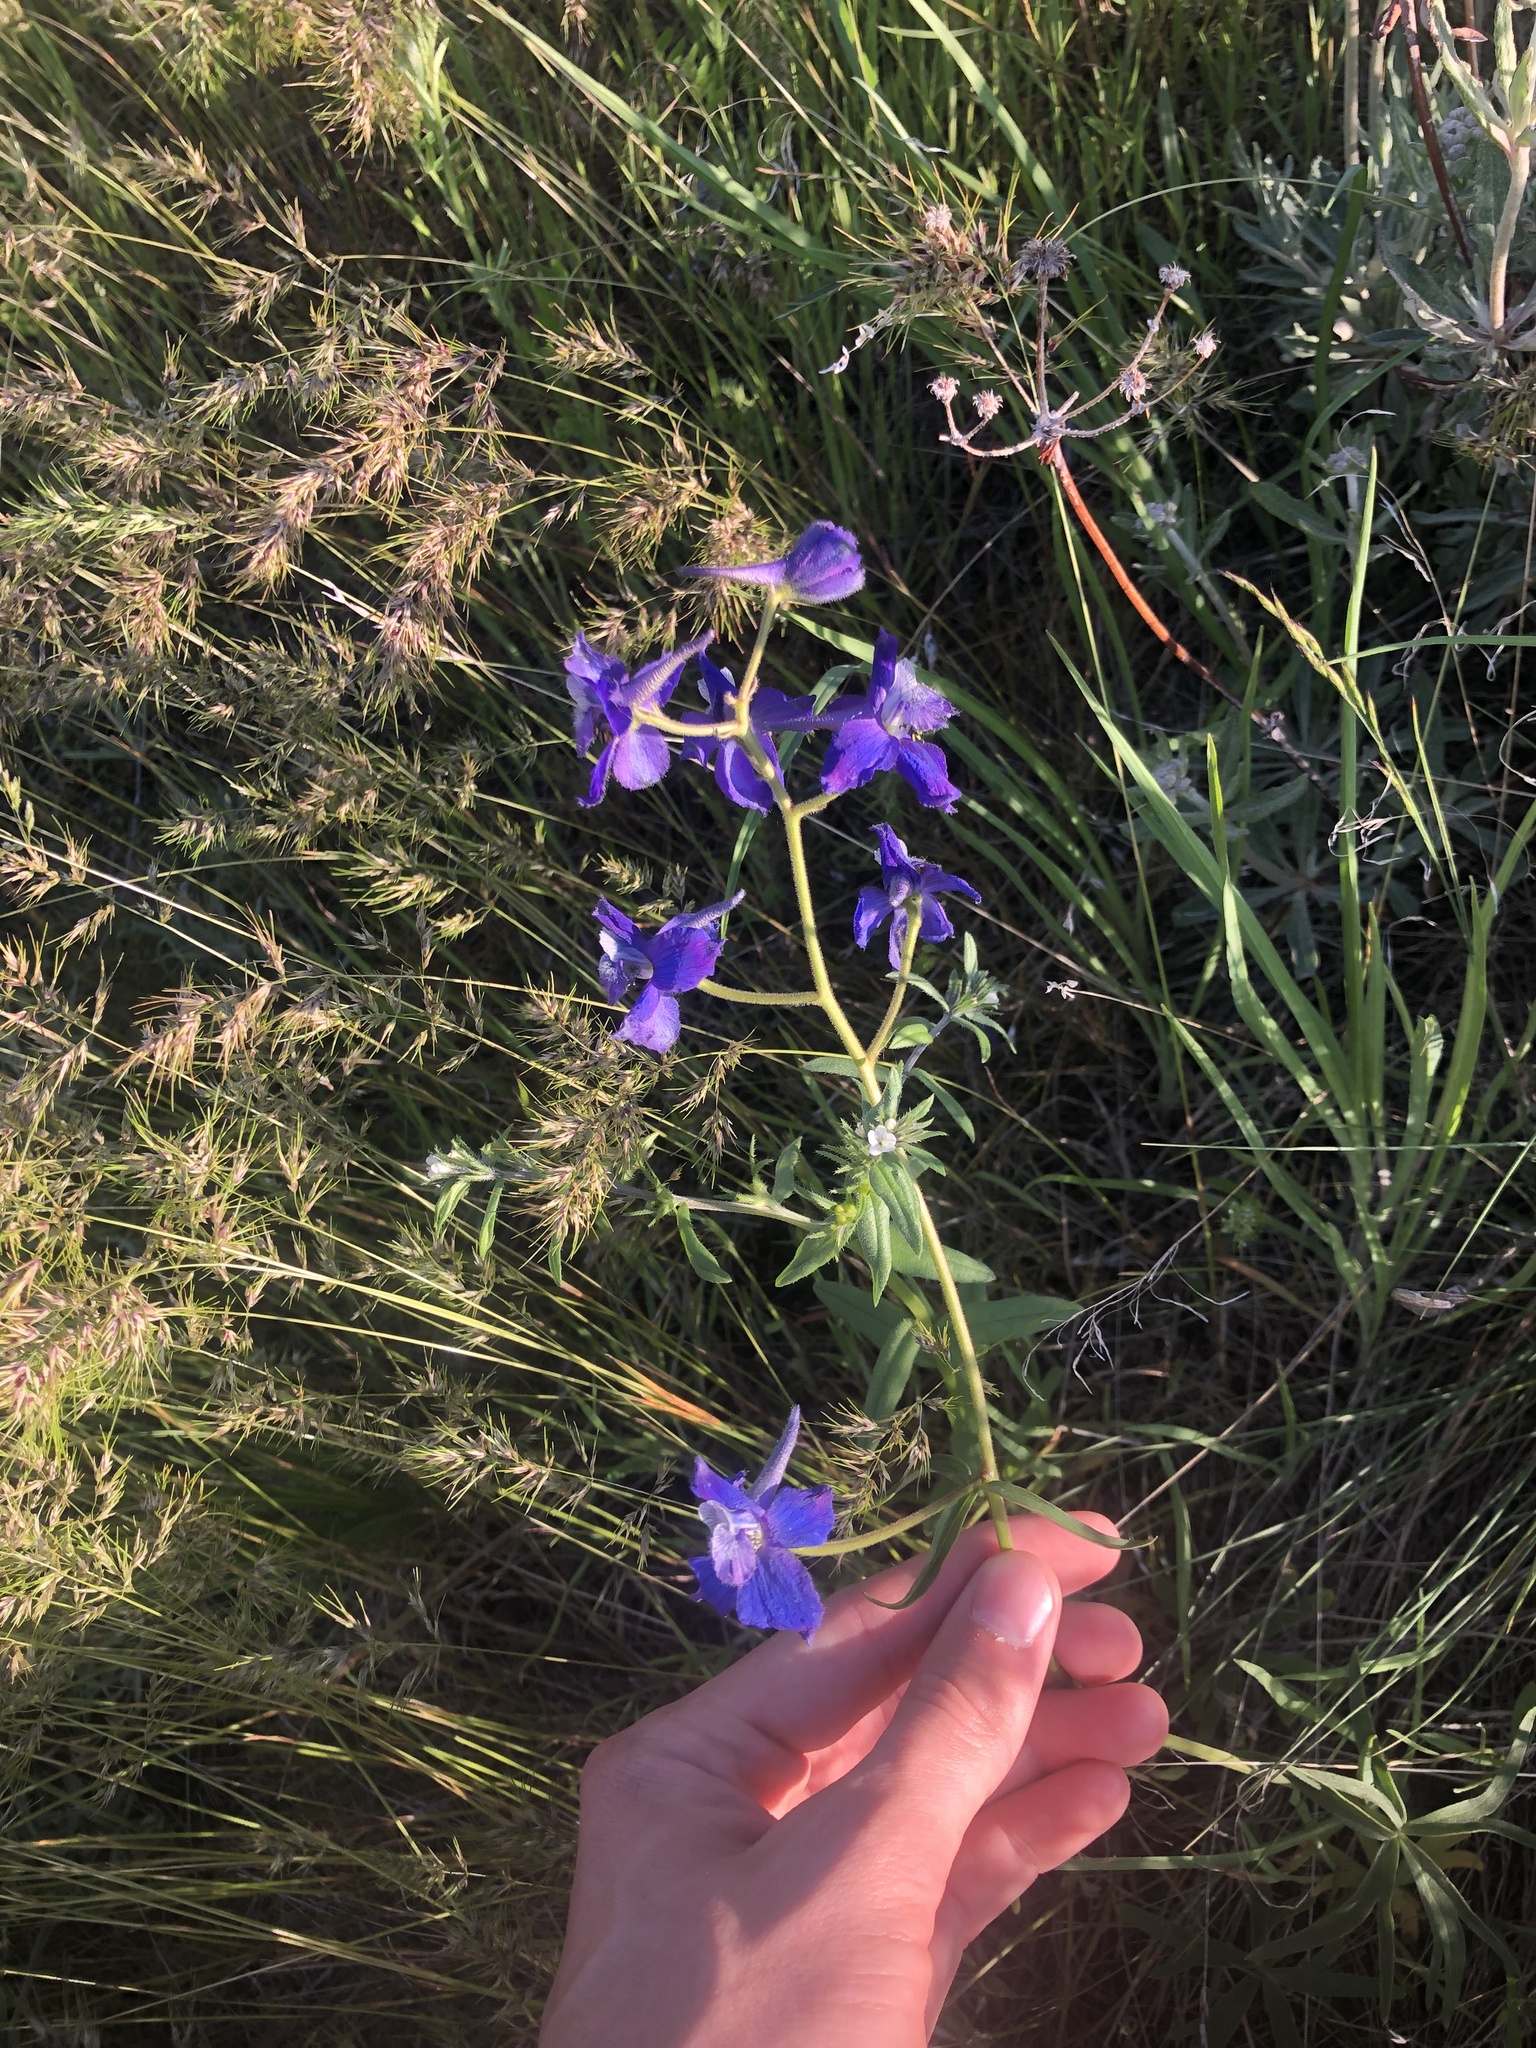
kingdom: Plantae
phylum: Tracheophyta
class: Magnoliopsida
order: Ranunculales
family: Ranunculaceae
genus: Delphinium
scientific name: Delphinium nuttallianum
